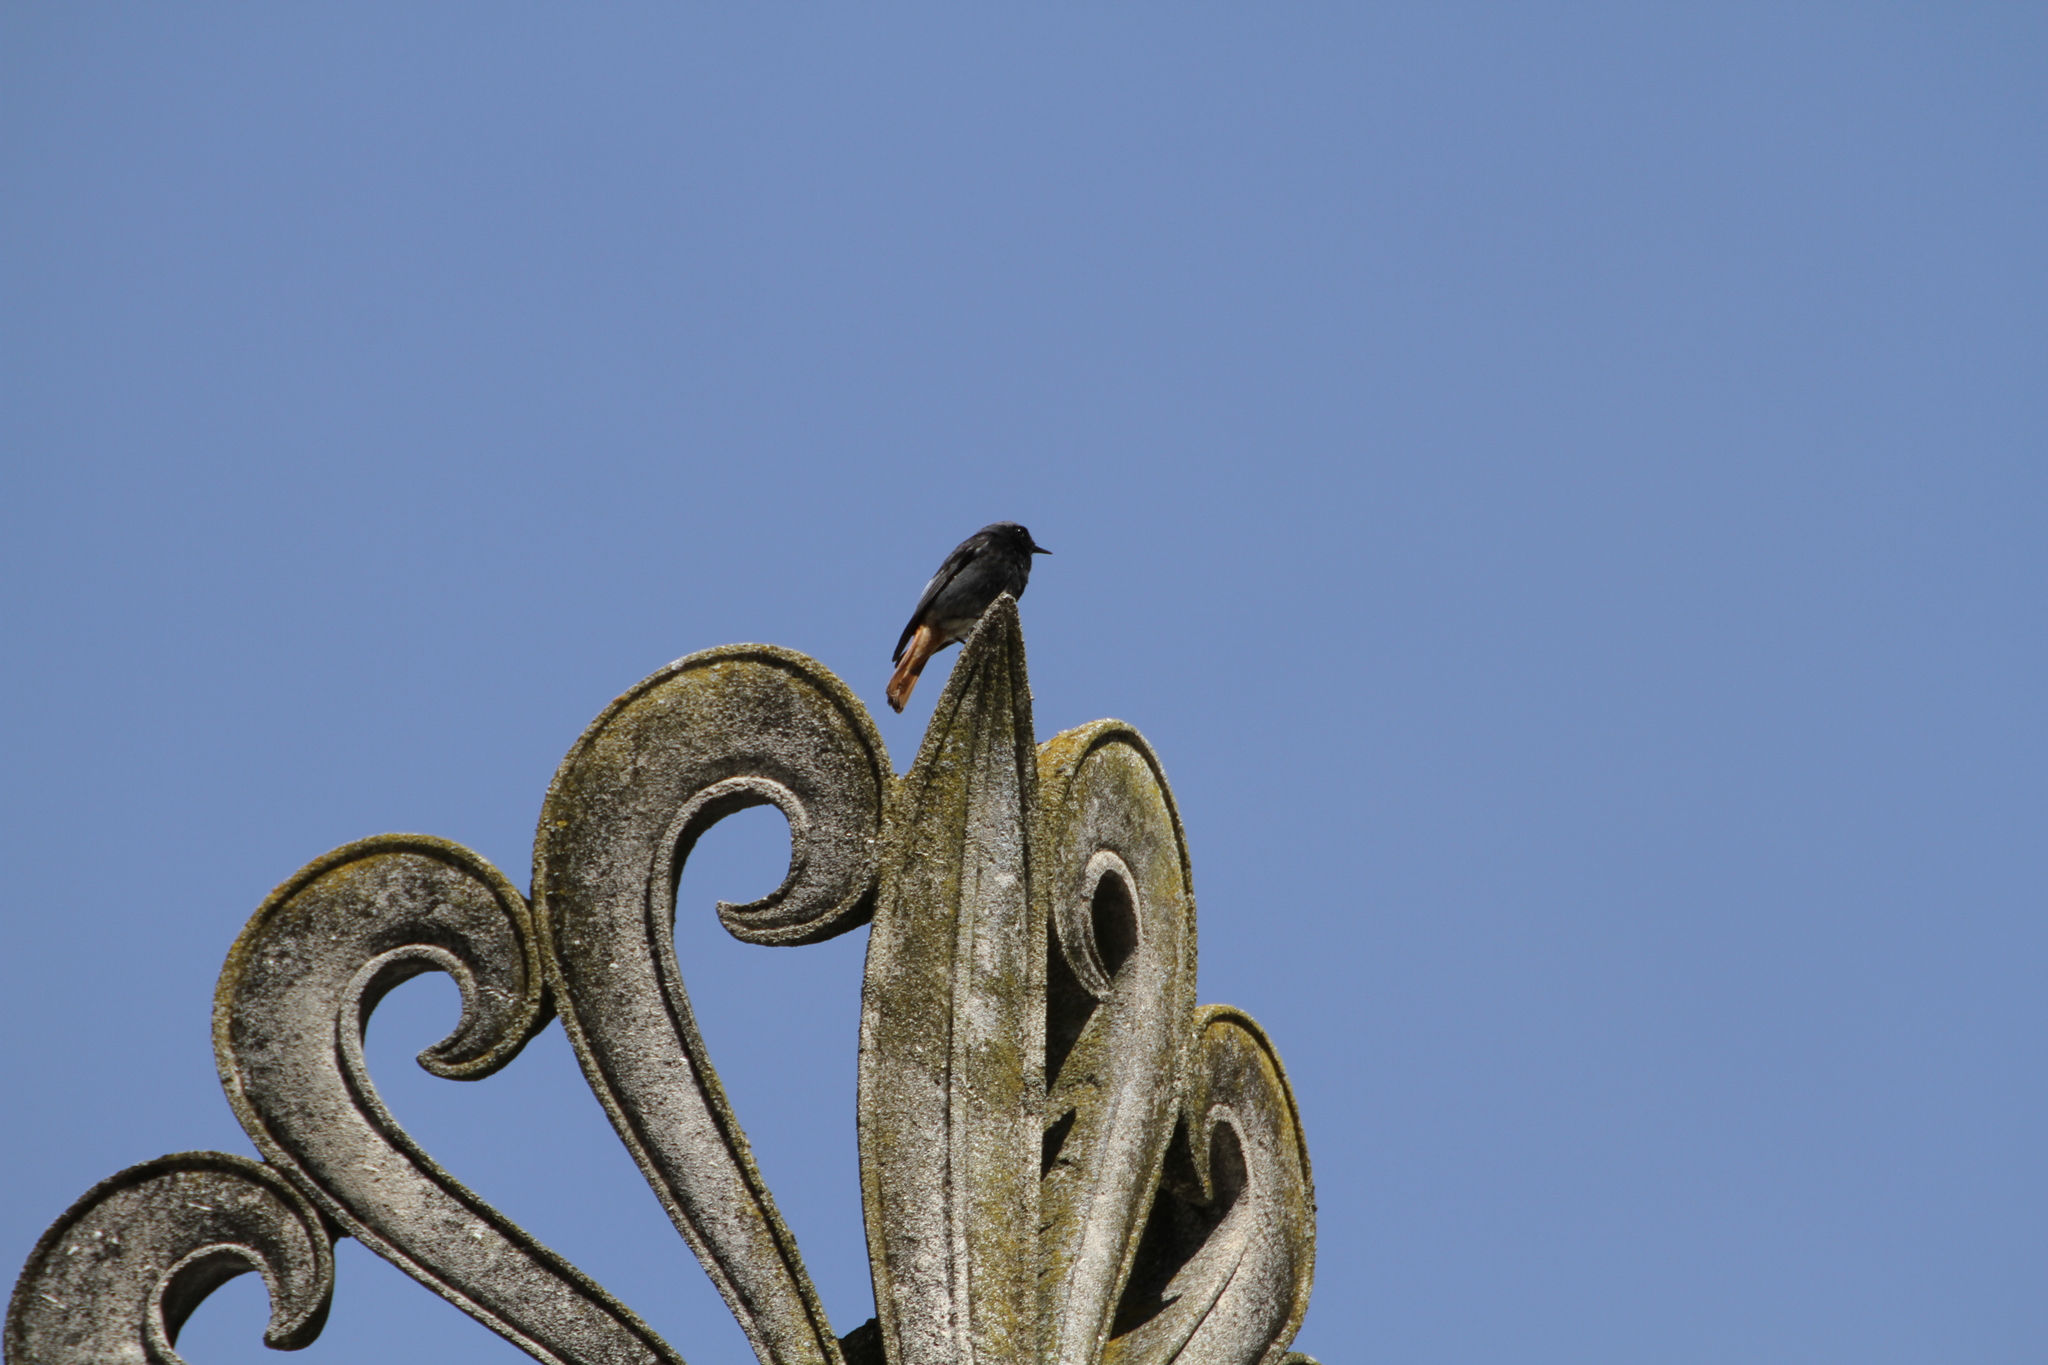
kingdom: Animalia
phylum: Chordata
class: Aves
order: Passeriformes
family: Muscicapidae
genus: Phoenicurus
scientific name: Phoenicurus ochruros
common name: Black redstart
